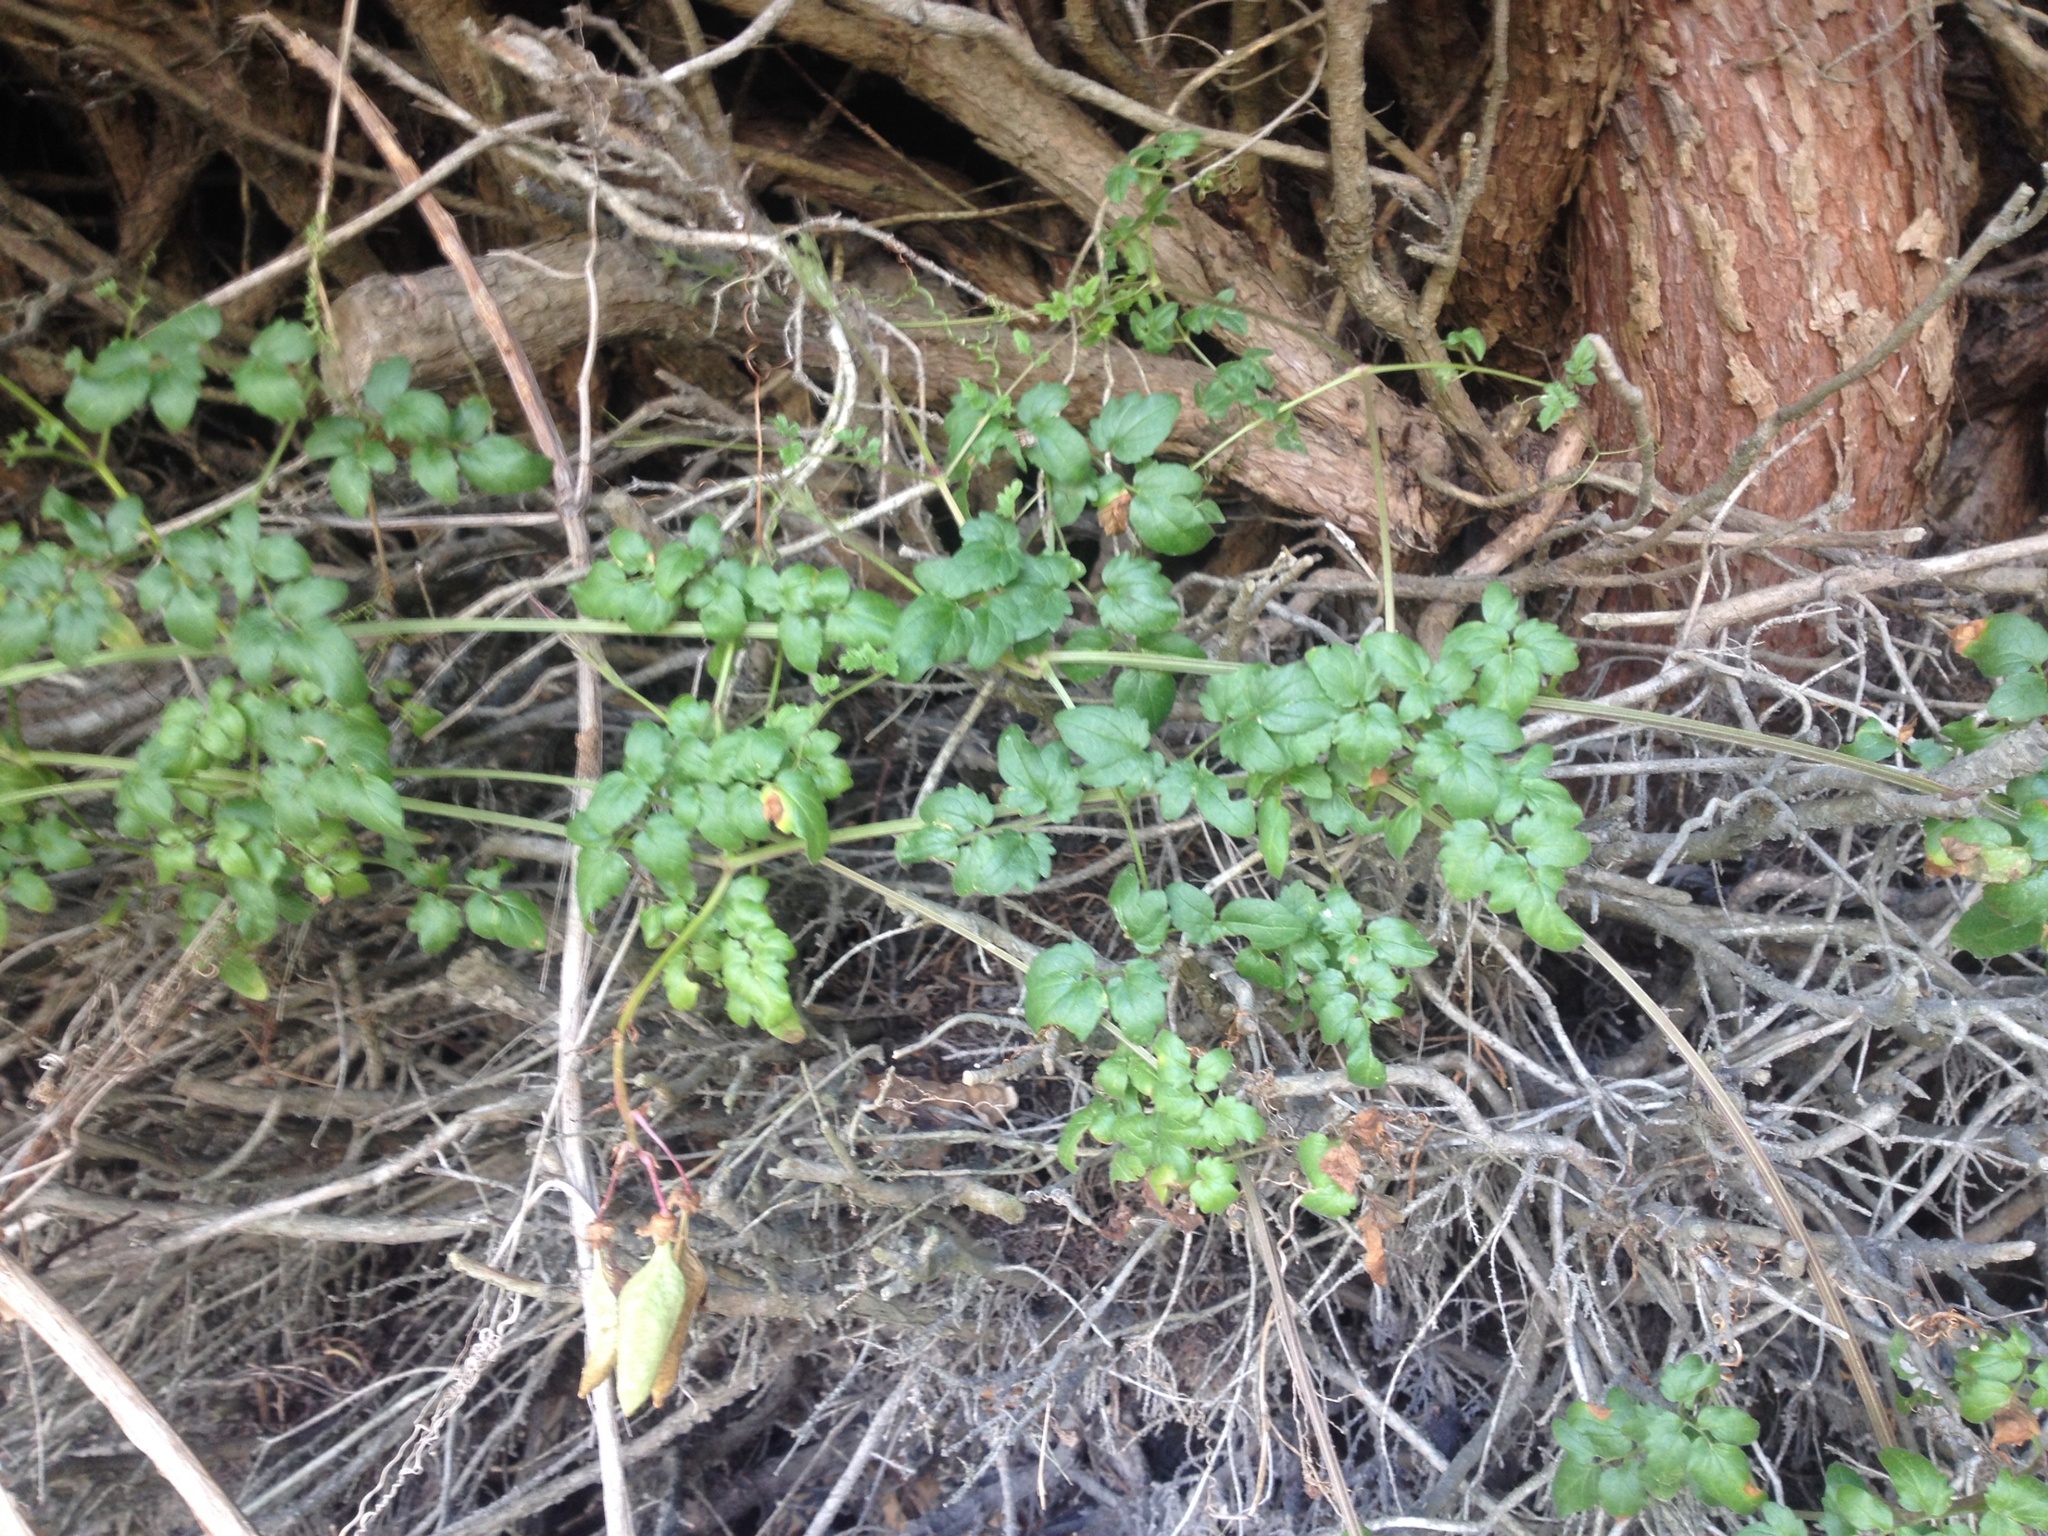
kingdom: Plantae
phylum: Tracheophyta
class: Magnoliopsida
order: Lamiales
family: Bignoniaceae
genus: Eccremocarpus
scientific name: Eccremocarpus scaber
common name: Chilean glory-flower
